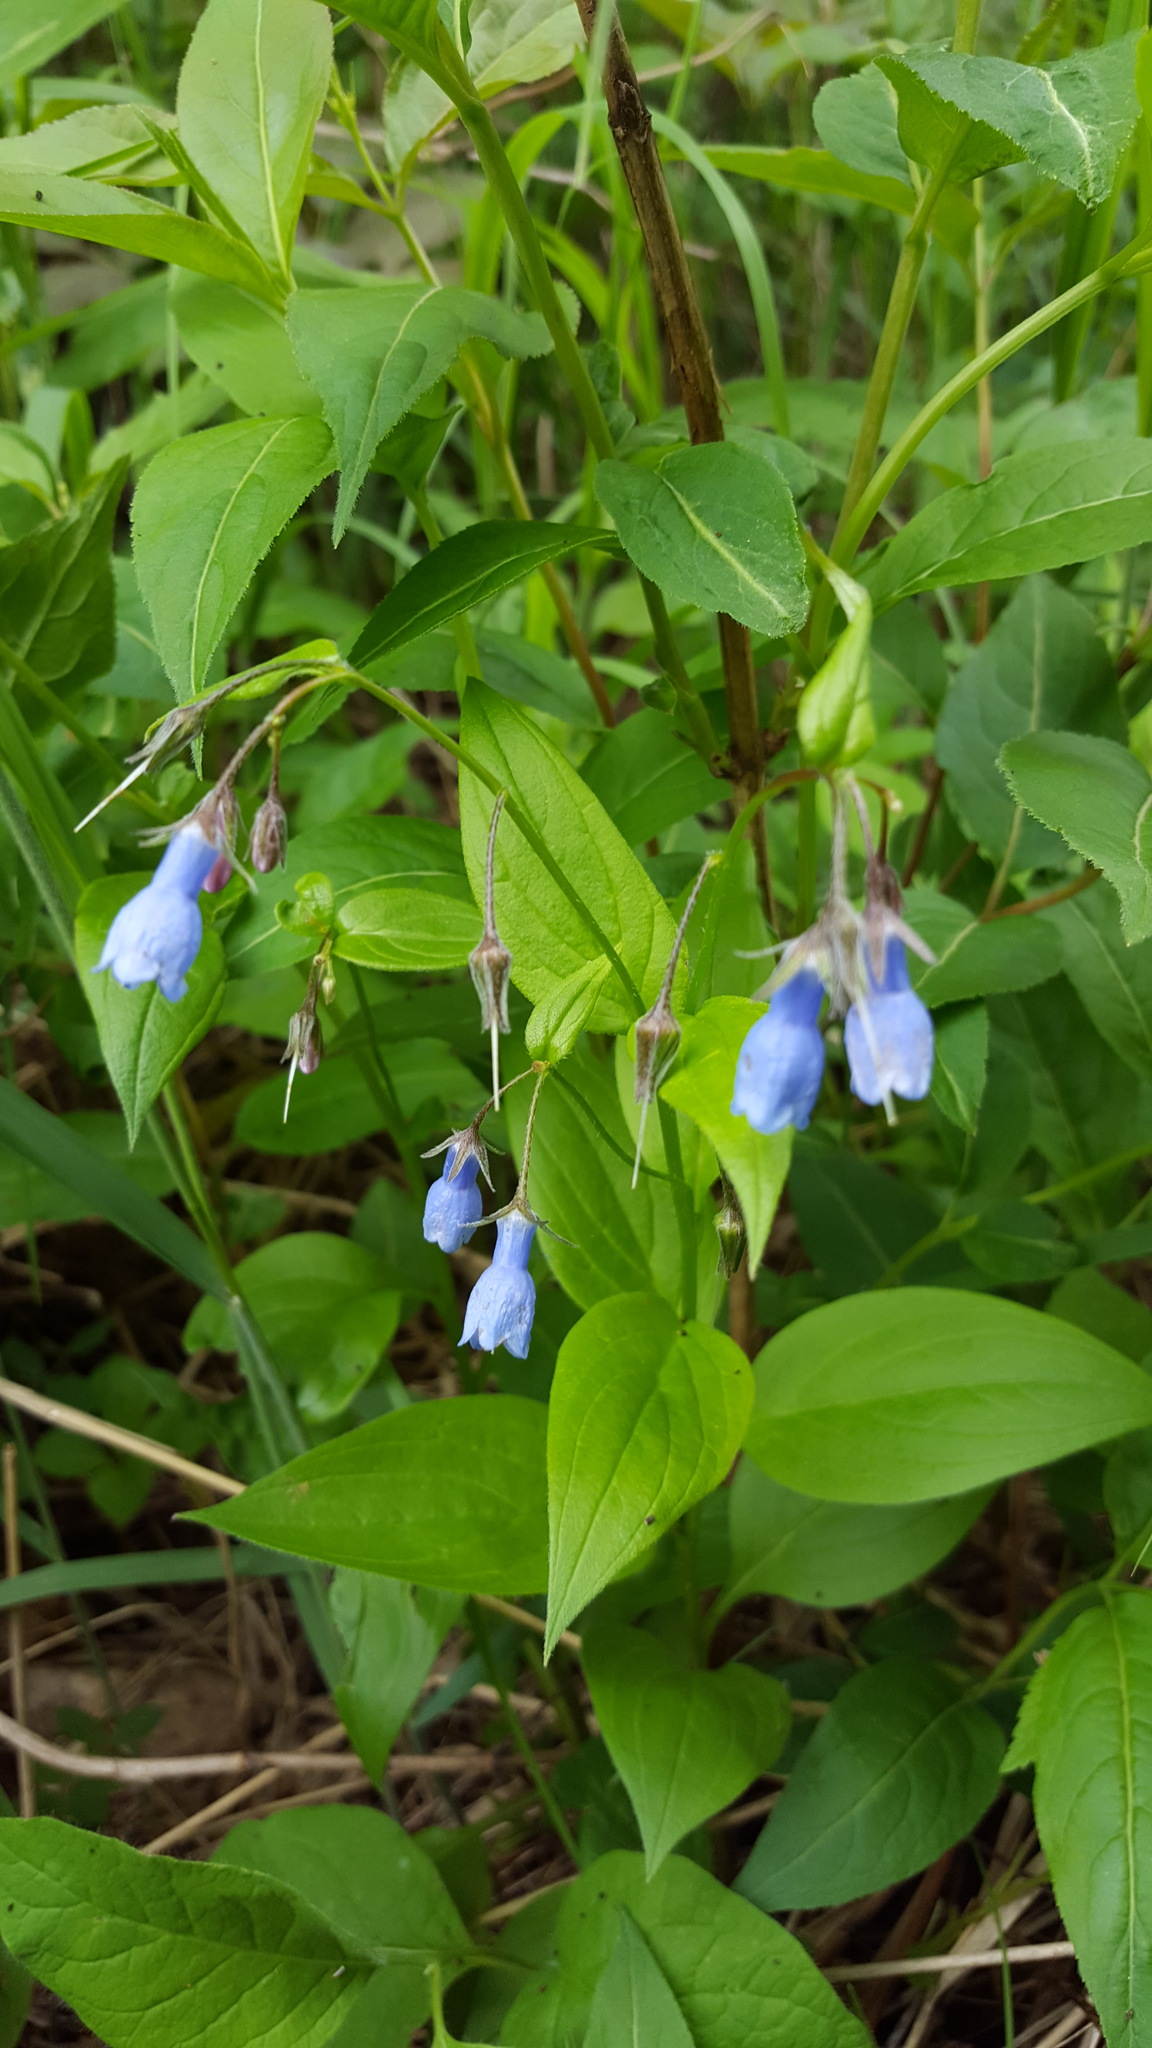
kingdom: Plantae
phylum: Tracheophyta
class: Magnoliopsida
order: Boraginales
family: Boraginaceae
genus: Mertensia
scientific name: Mertensia paniculata
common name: Panicled bluebells
